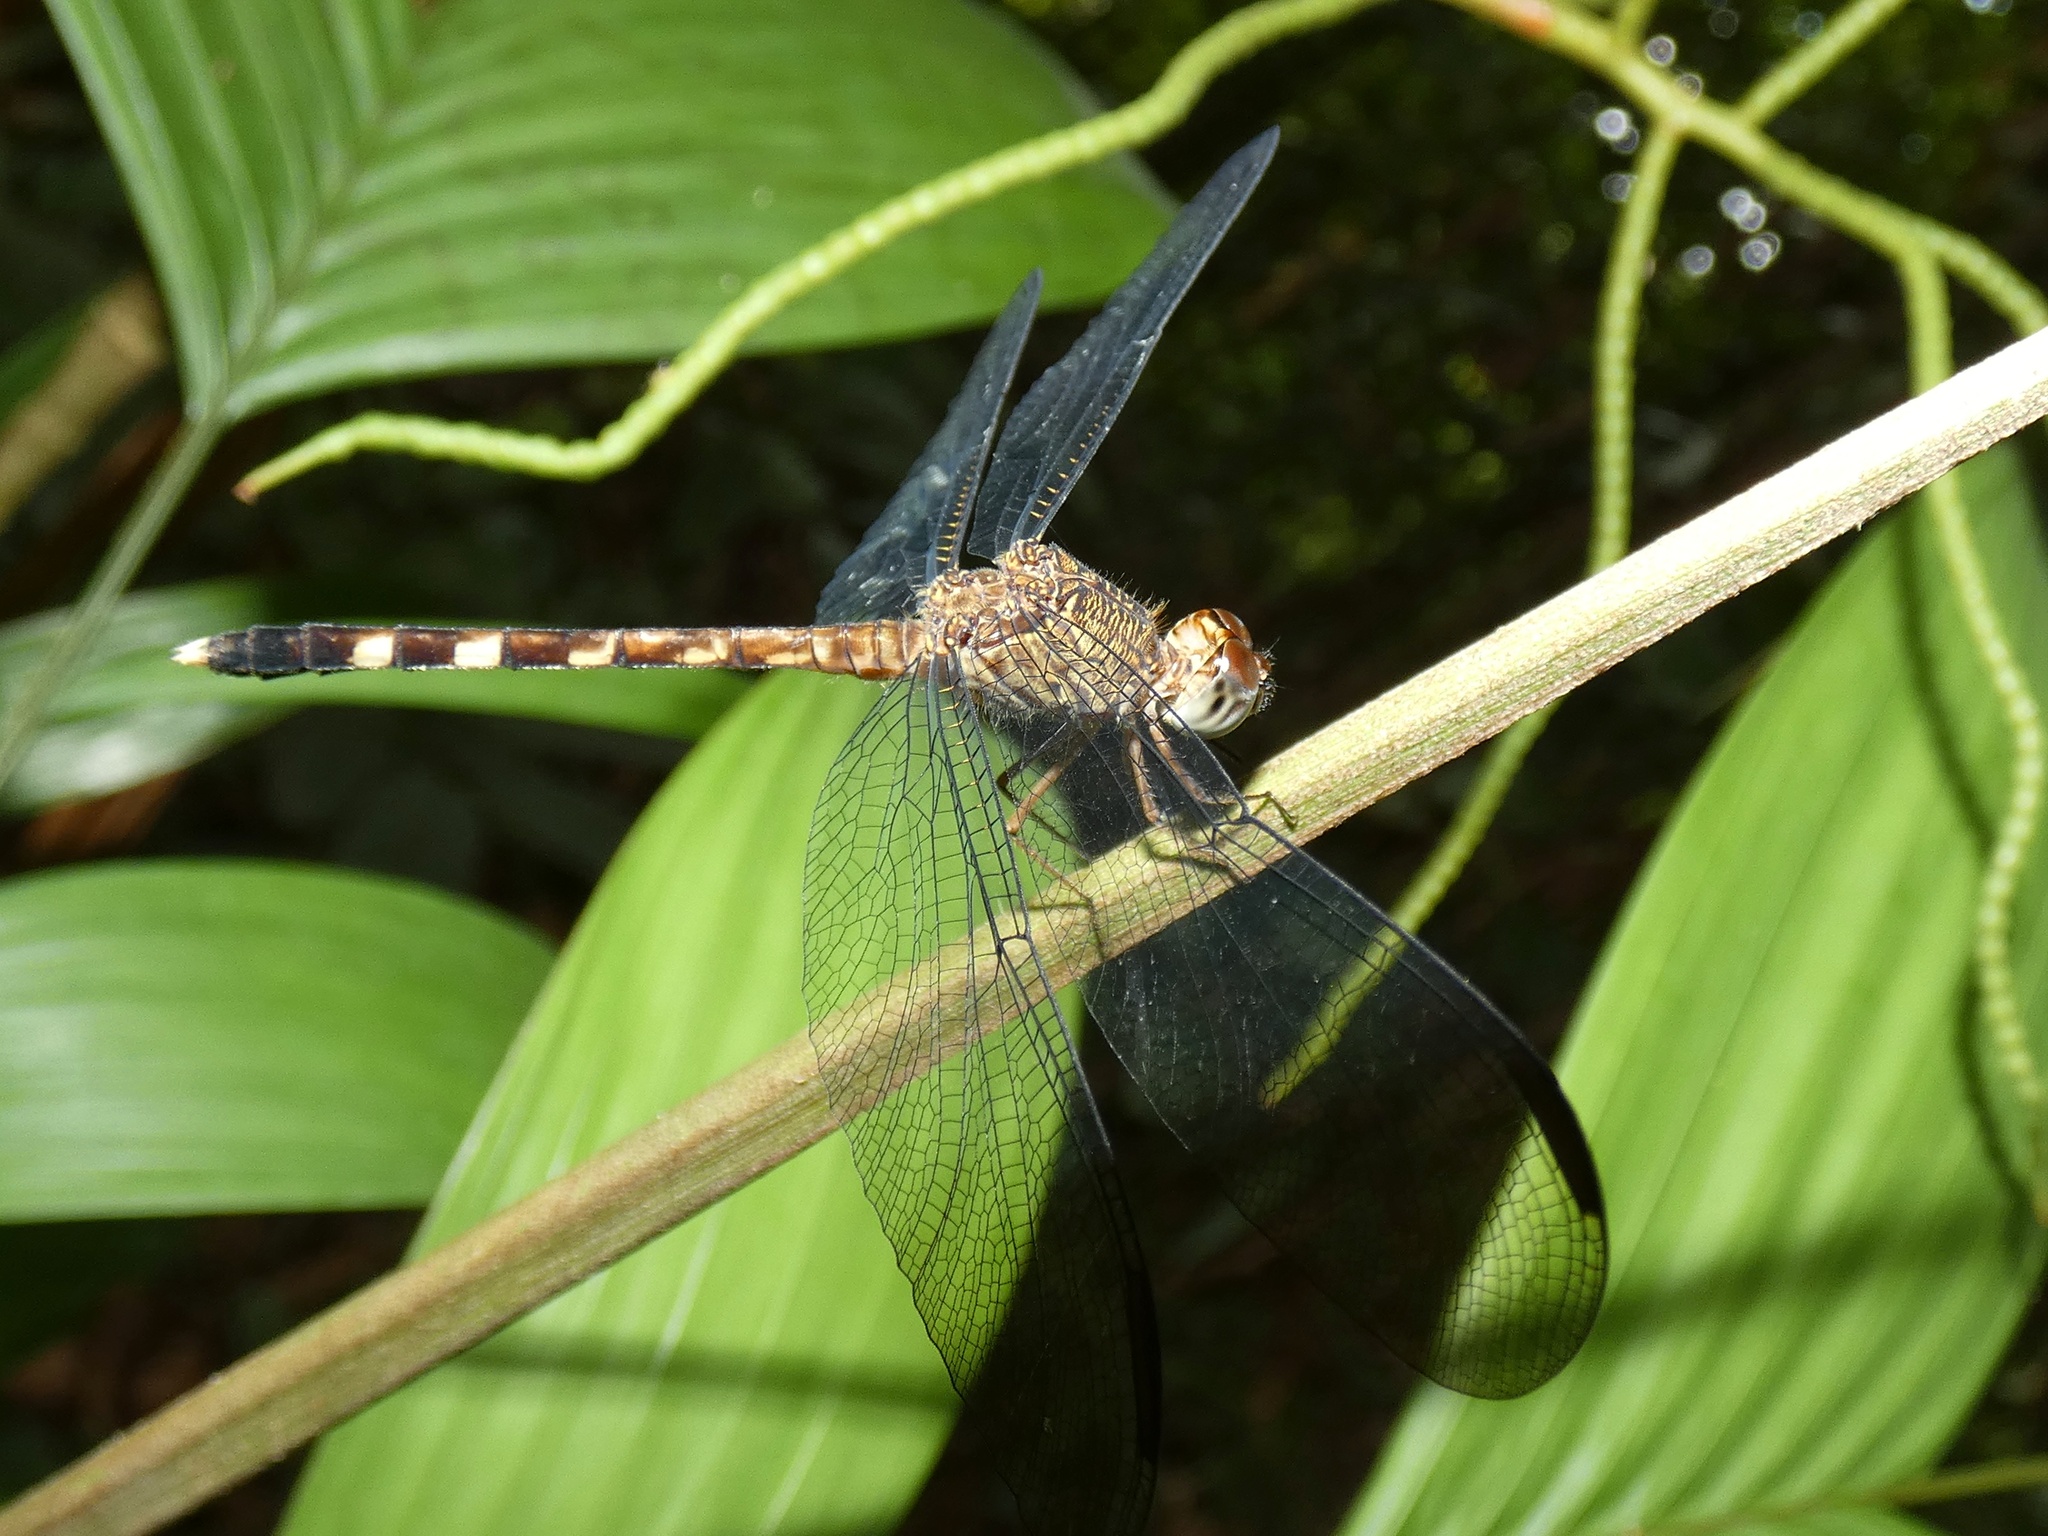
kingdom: Animalia
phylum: Arthropoda
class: Insecta
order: Odonata
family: Libellulidae
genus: Uracis
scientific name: Uracis fastigiata
